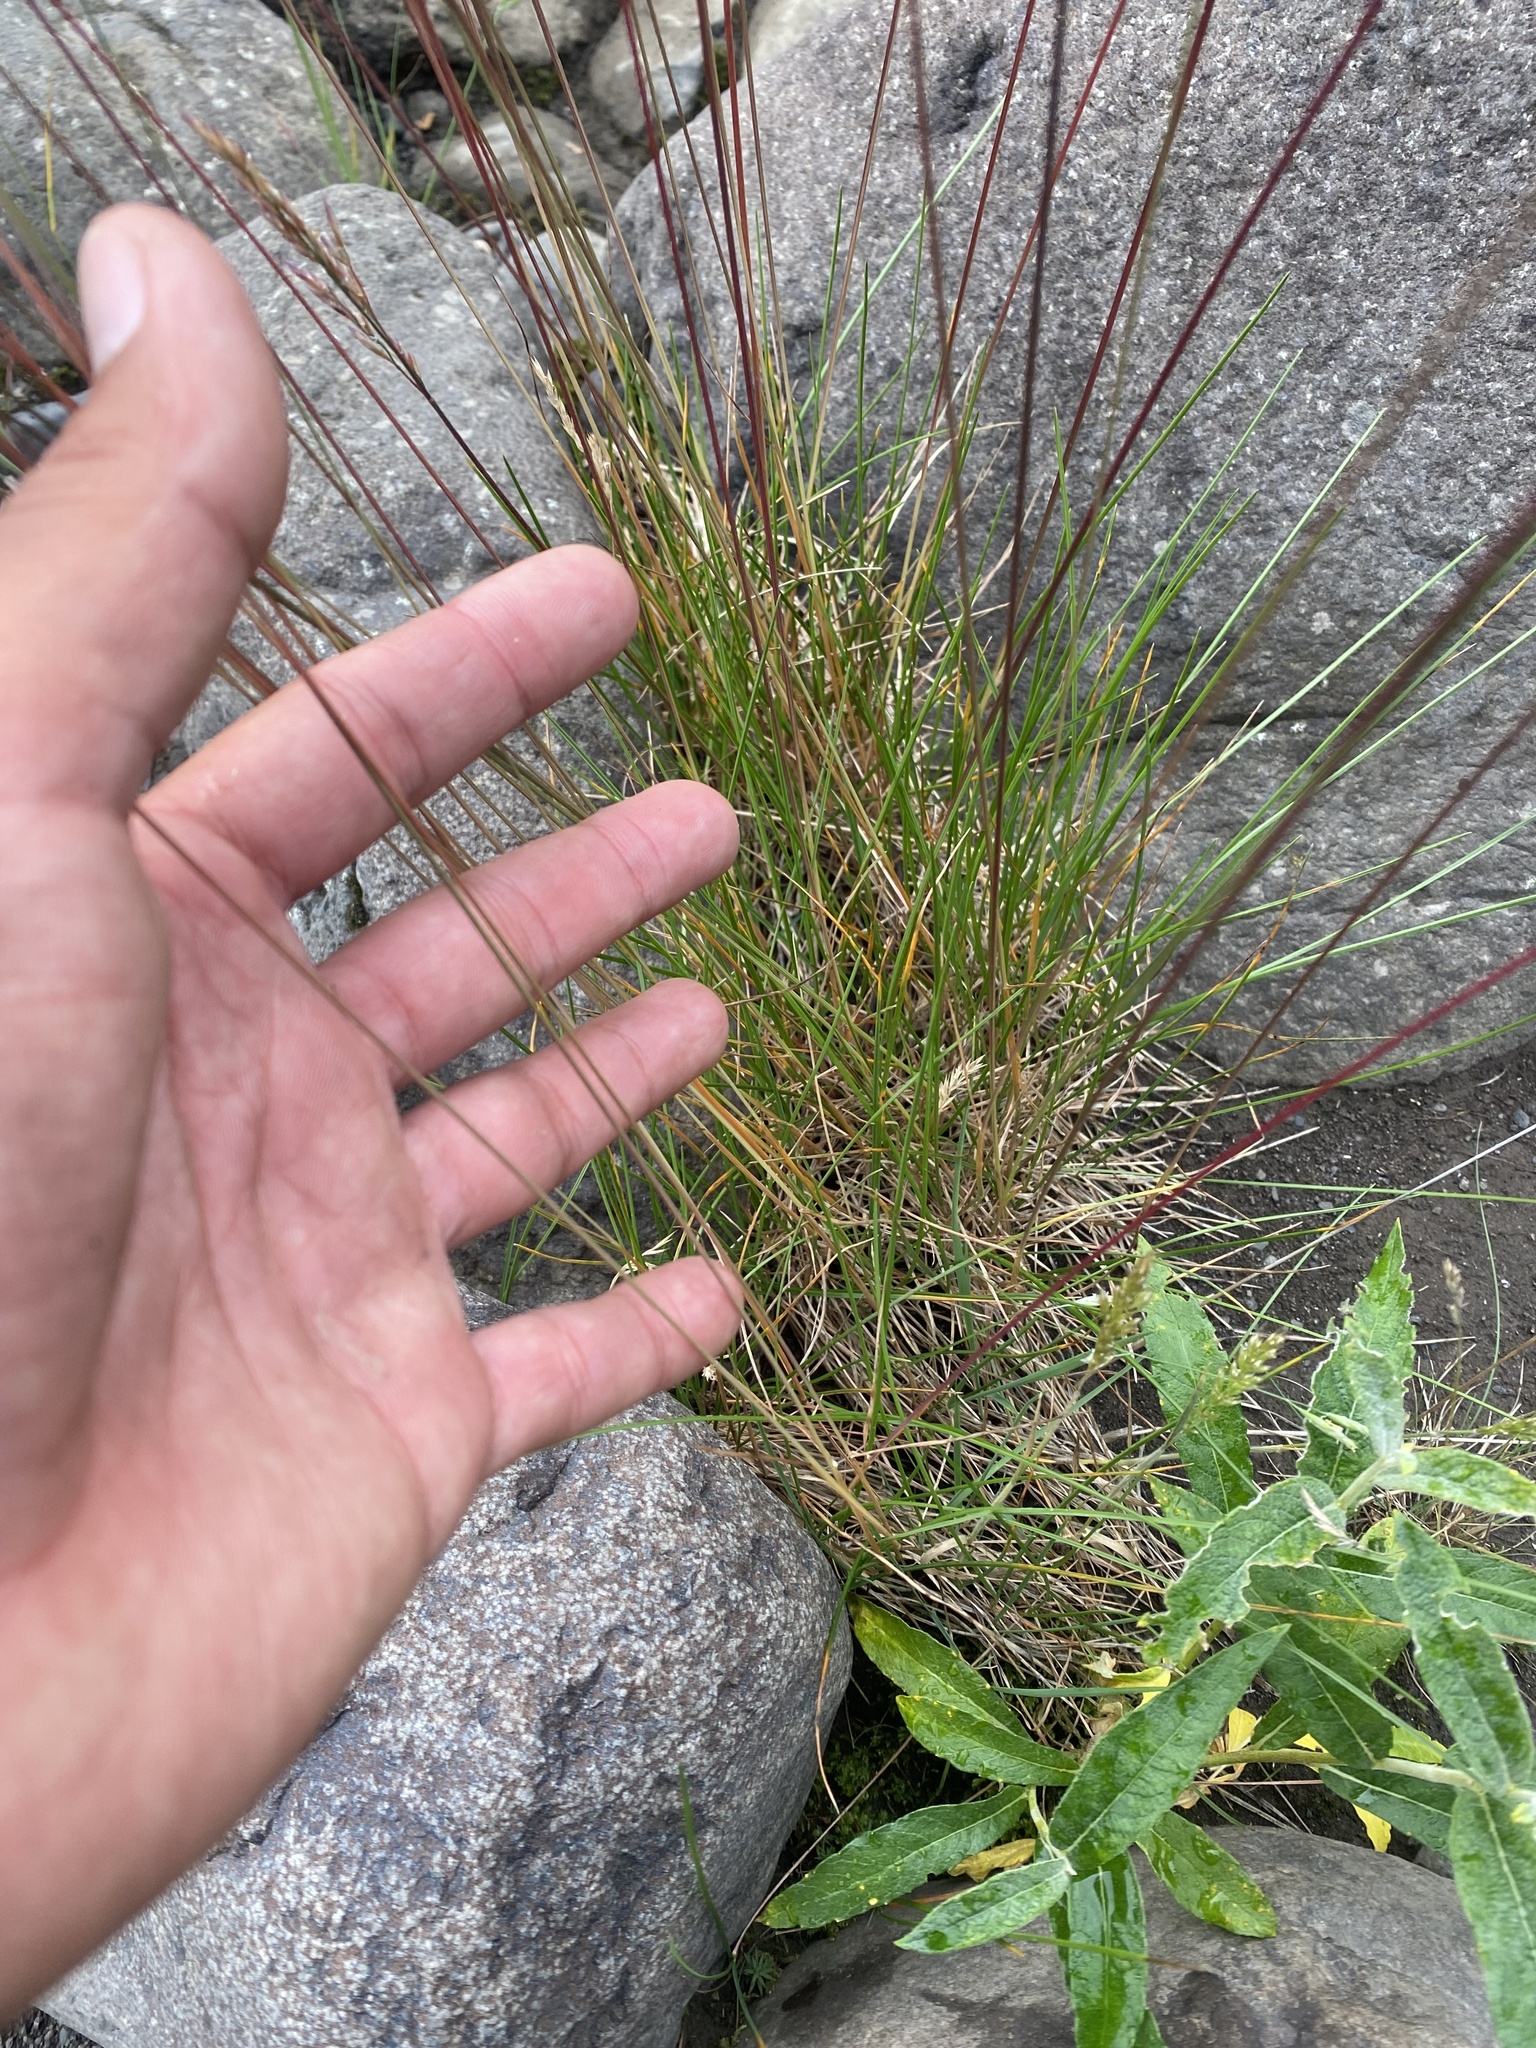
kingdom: Plantae
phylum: Tracheophyta
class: Liliopsida
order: Poales
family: Poaceae
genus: Festuca
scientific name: Festuca rubra
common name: Red fescue
